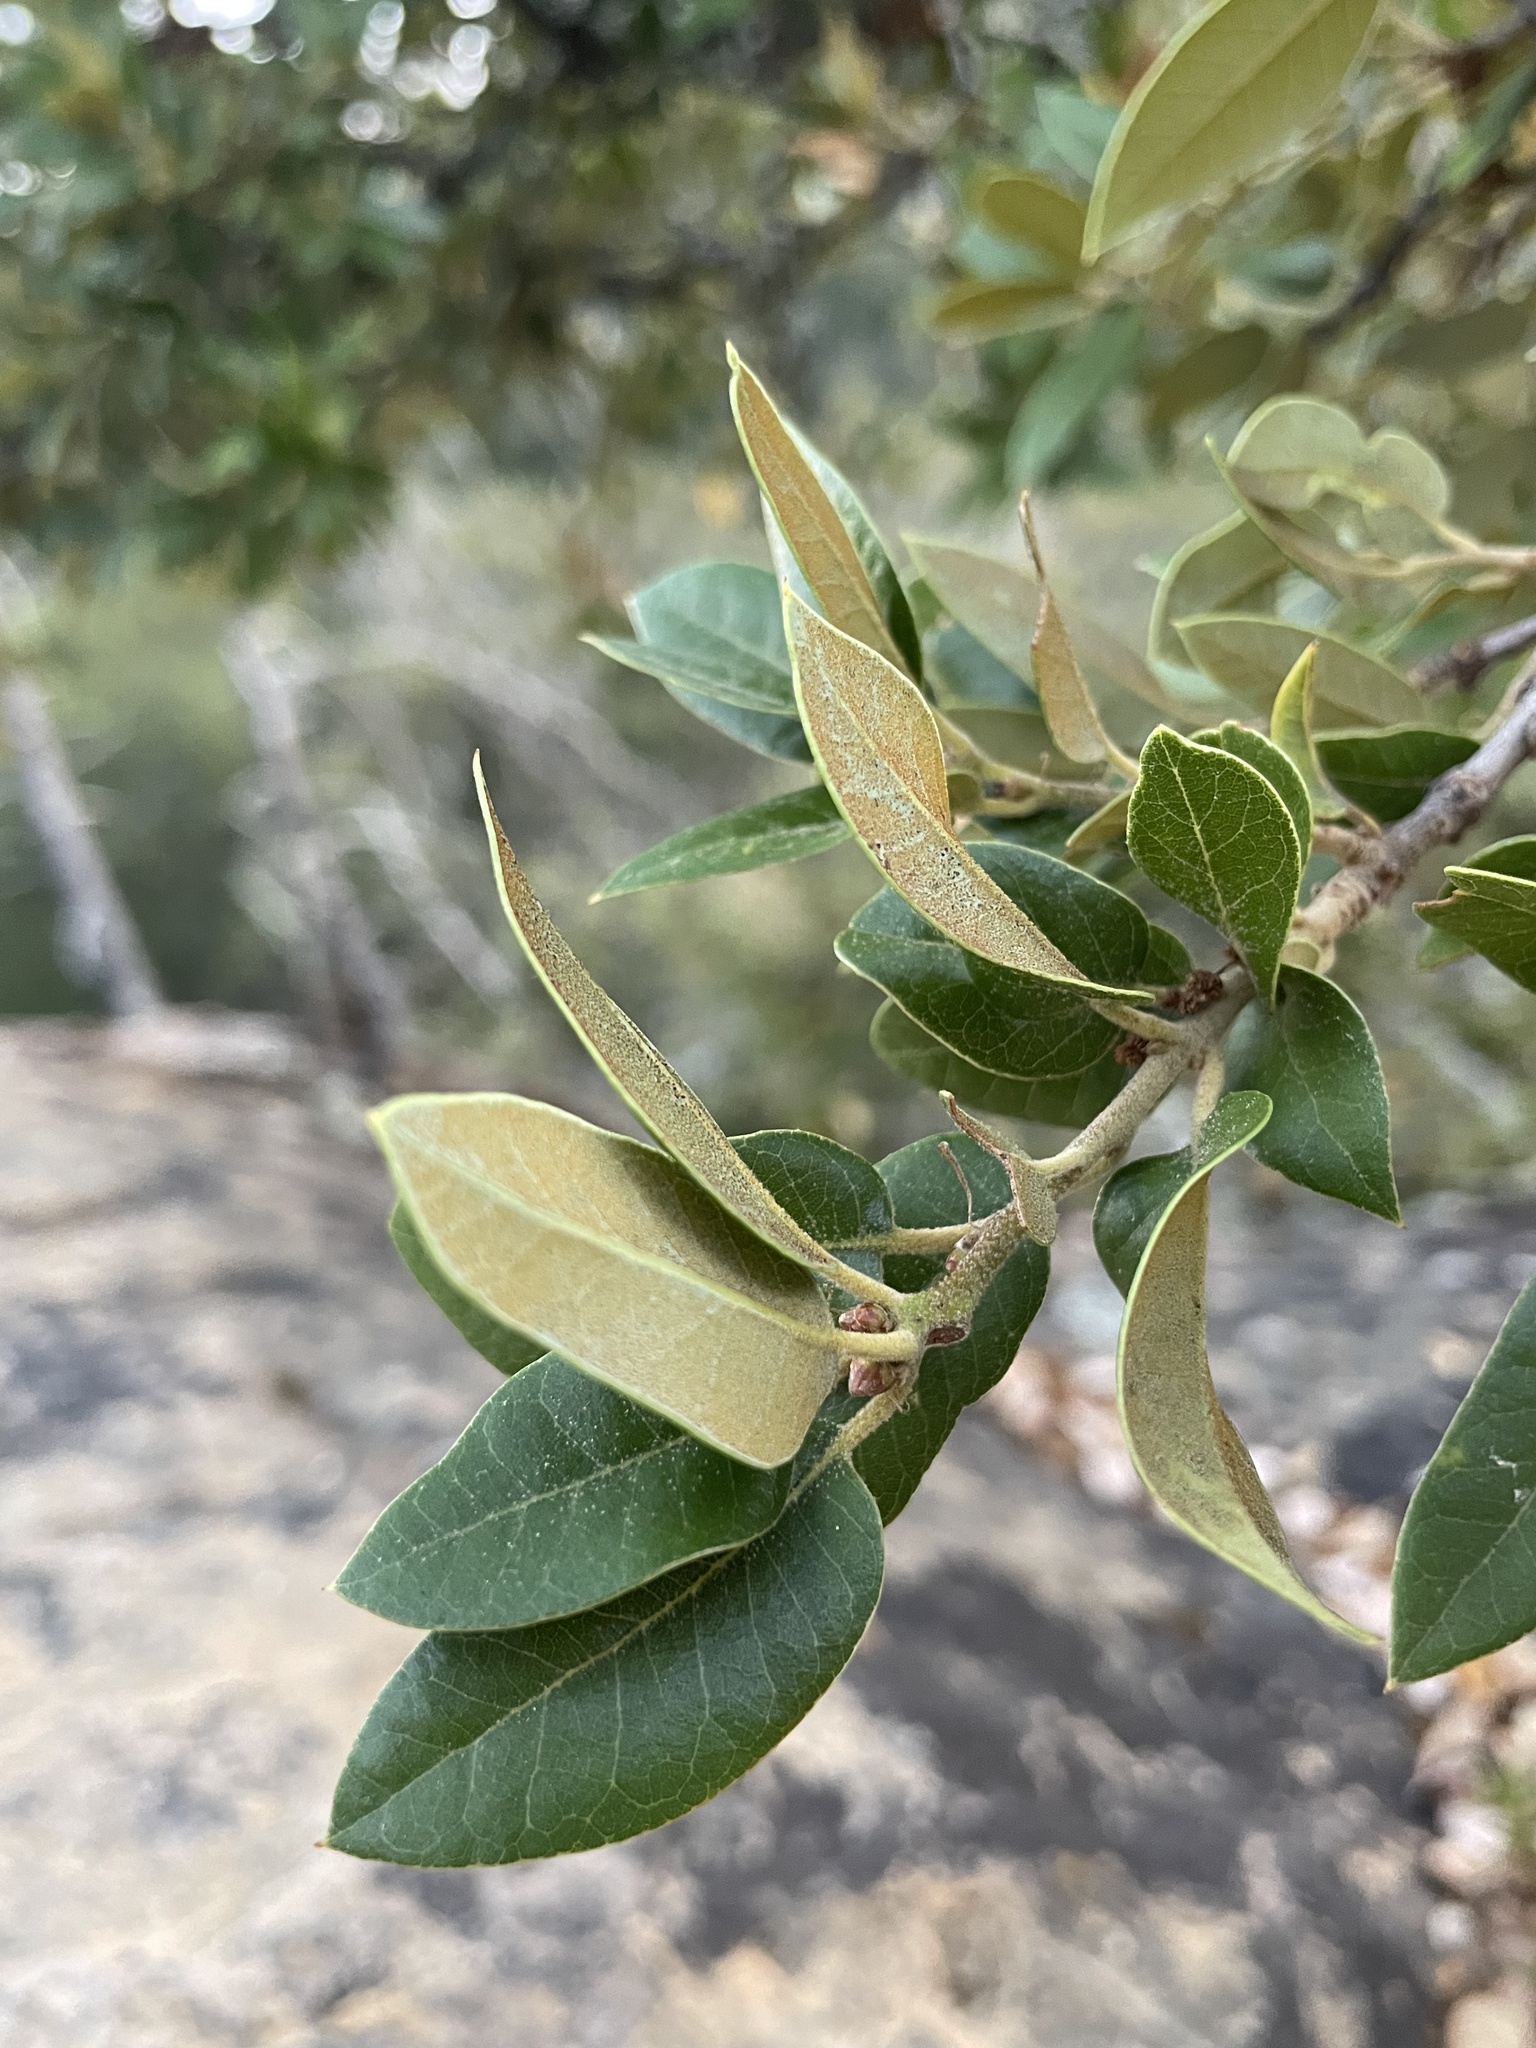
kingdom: Plantae
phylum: Tracheophyta
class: Magnoliopsida
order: Fagales
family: Fagaceae
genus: Quercus
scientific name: Quercus chrysolepis
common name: Canyon live oak
